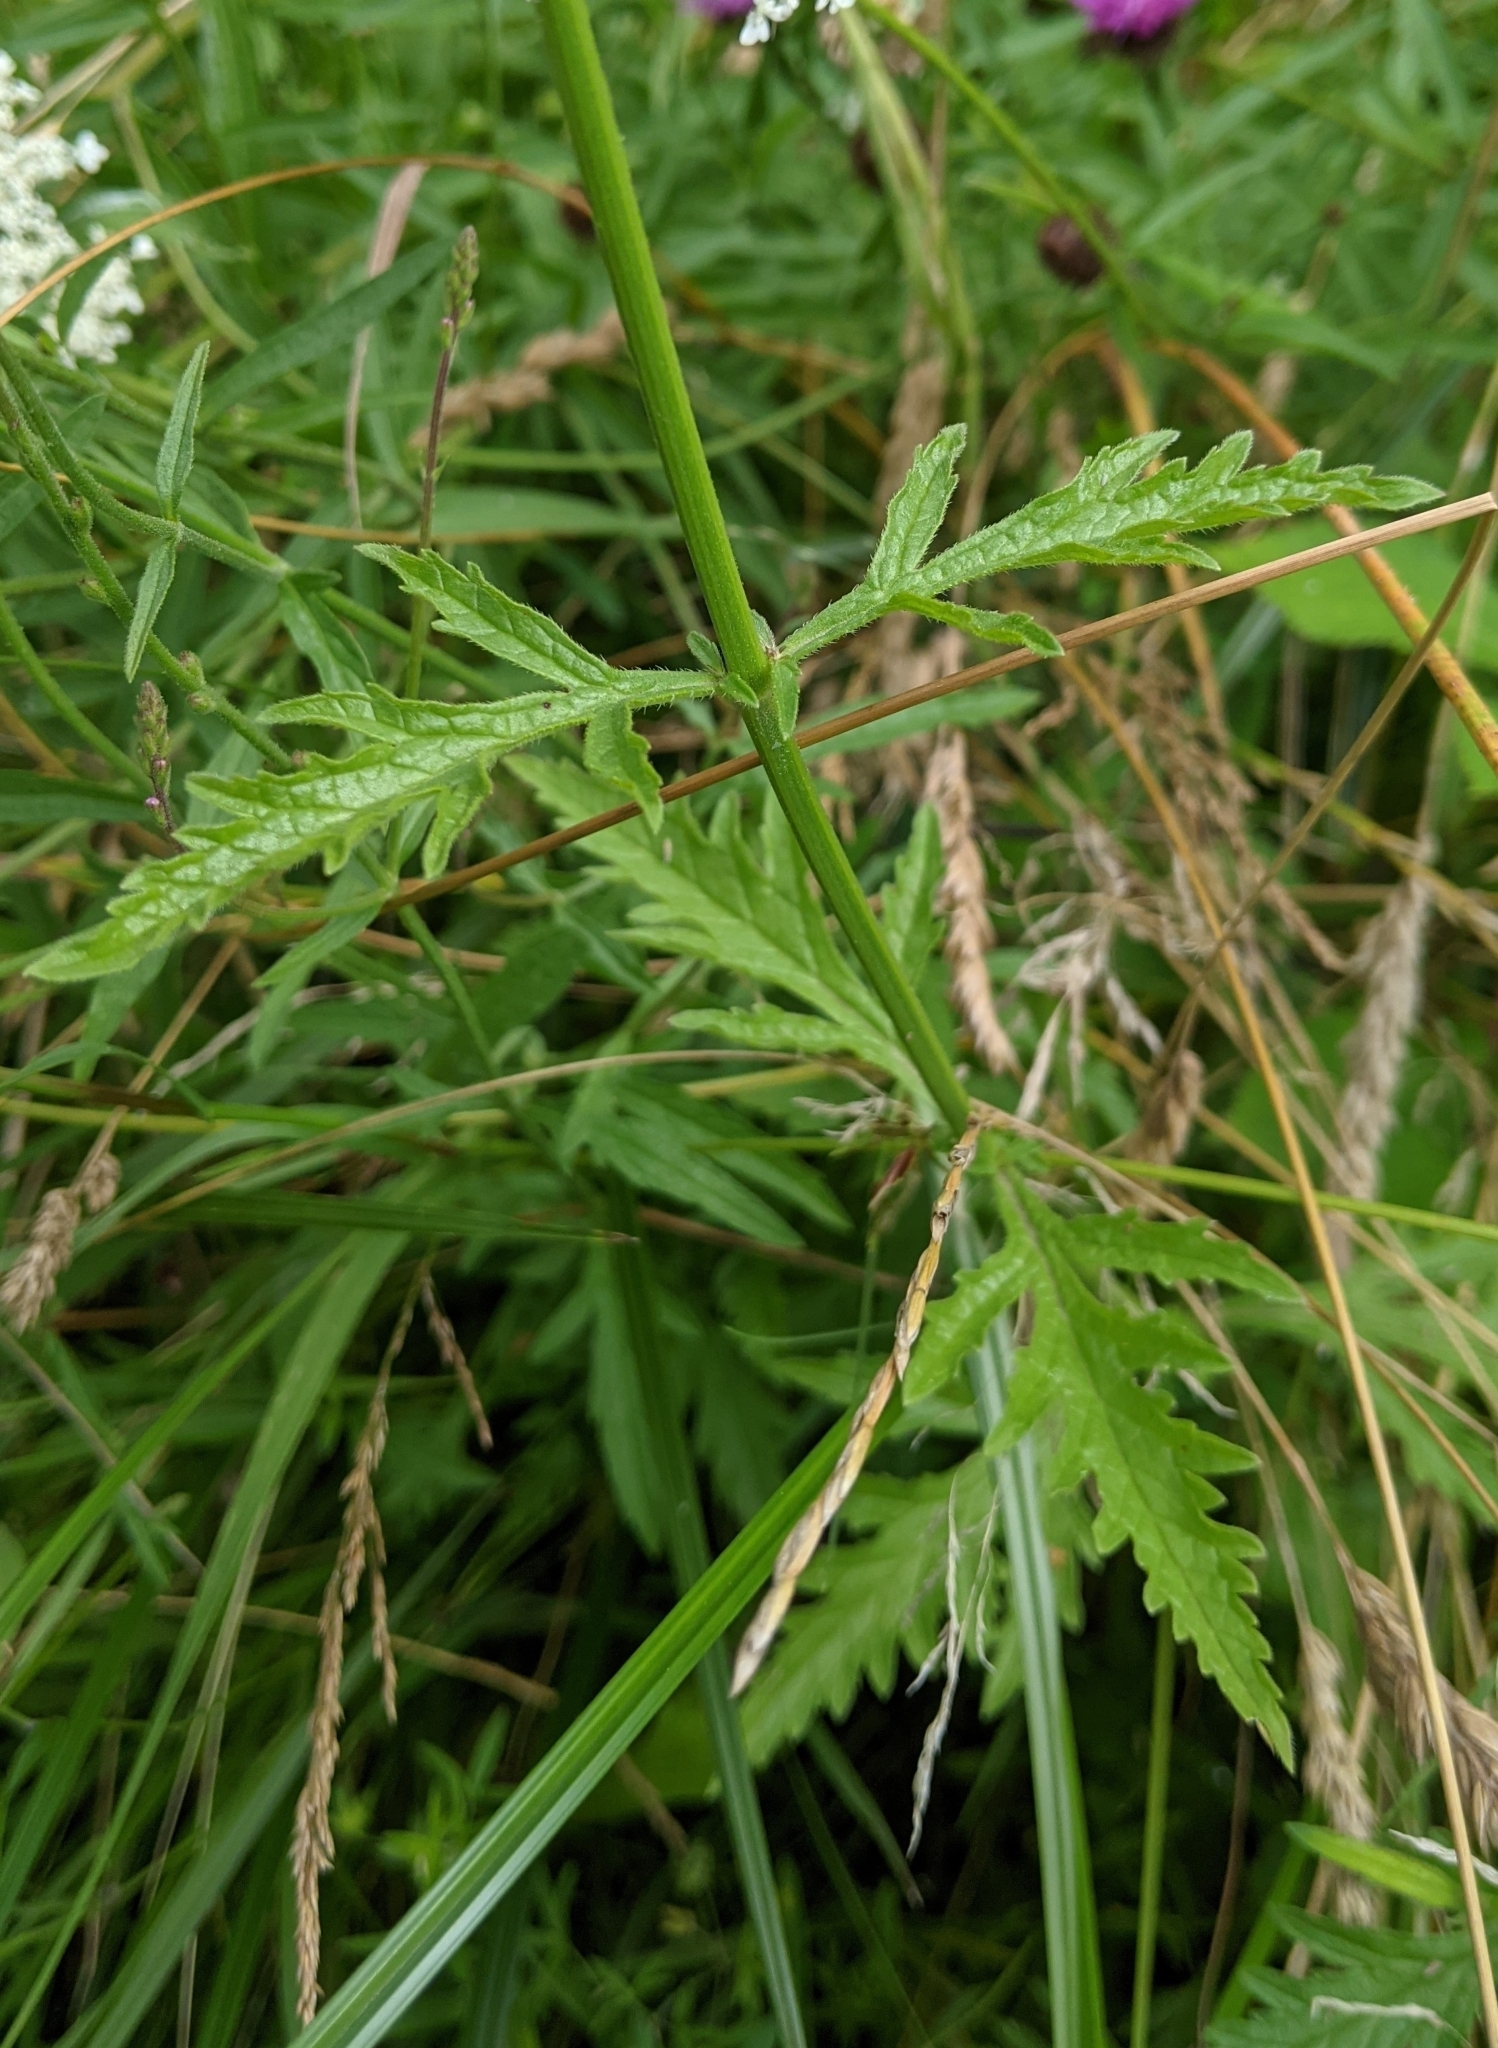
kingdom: Plantae
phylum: Tracheophyta
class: Magnoliopsida
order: Lamiales
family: Verbenaceae
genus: Verbena
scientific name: Verbena officinalis
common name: Vervain
